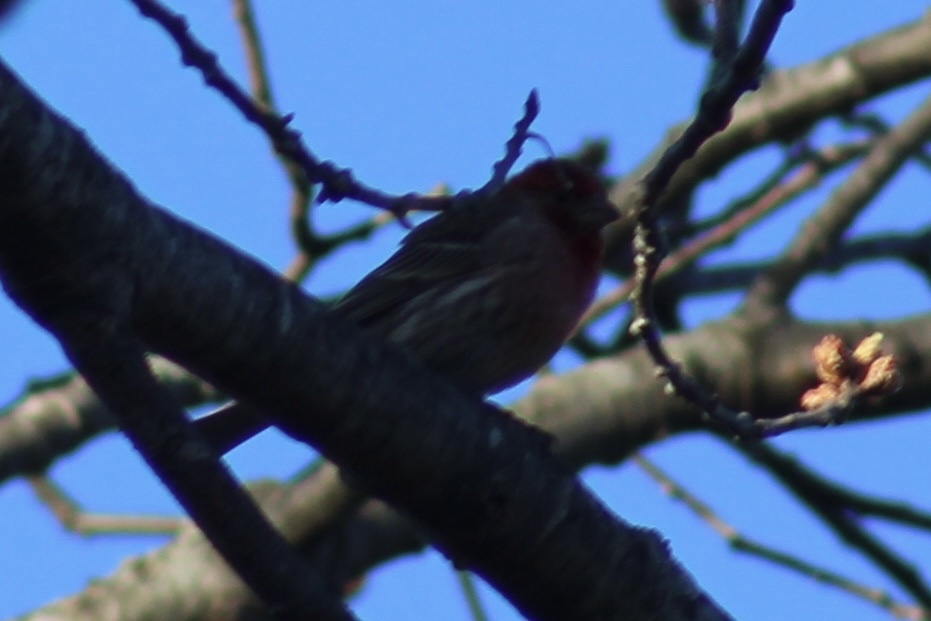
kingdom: Animalia
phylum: Chordata
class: Aves
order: Passeriformes
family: Fringillidae
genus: Haemorhous
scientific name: Haemorhous mexicanus
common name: House finch
